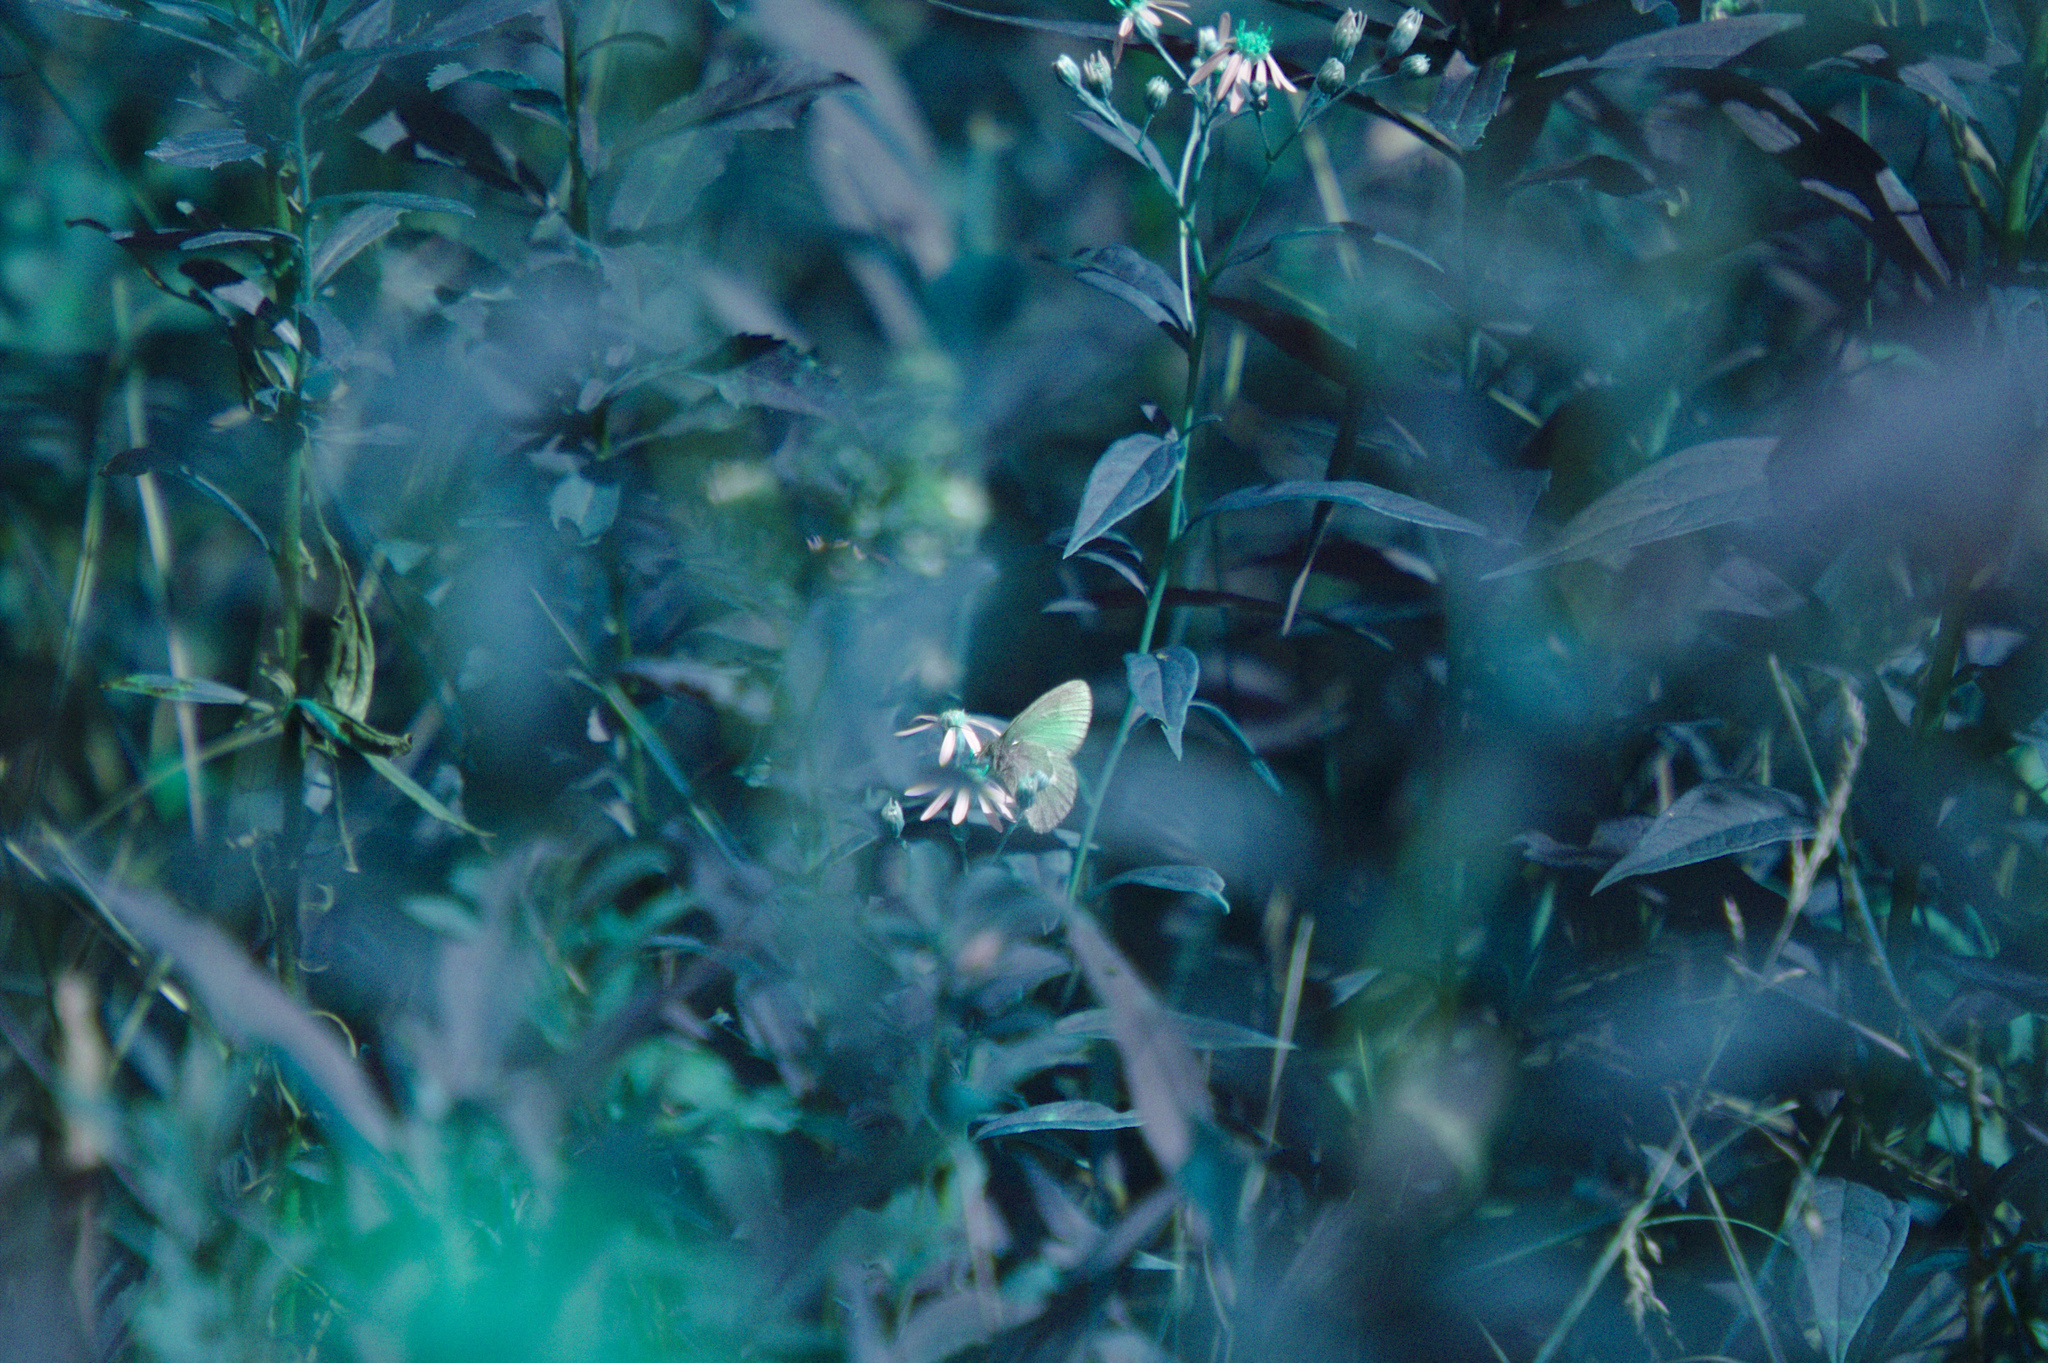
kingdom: Animalia
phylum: Arthropoda
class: Insecta
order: Lepidoptera
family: Nymphalidae
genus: Coenonympha
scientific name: Coenonympha california
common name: Common ringlet
